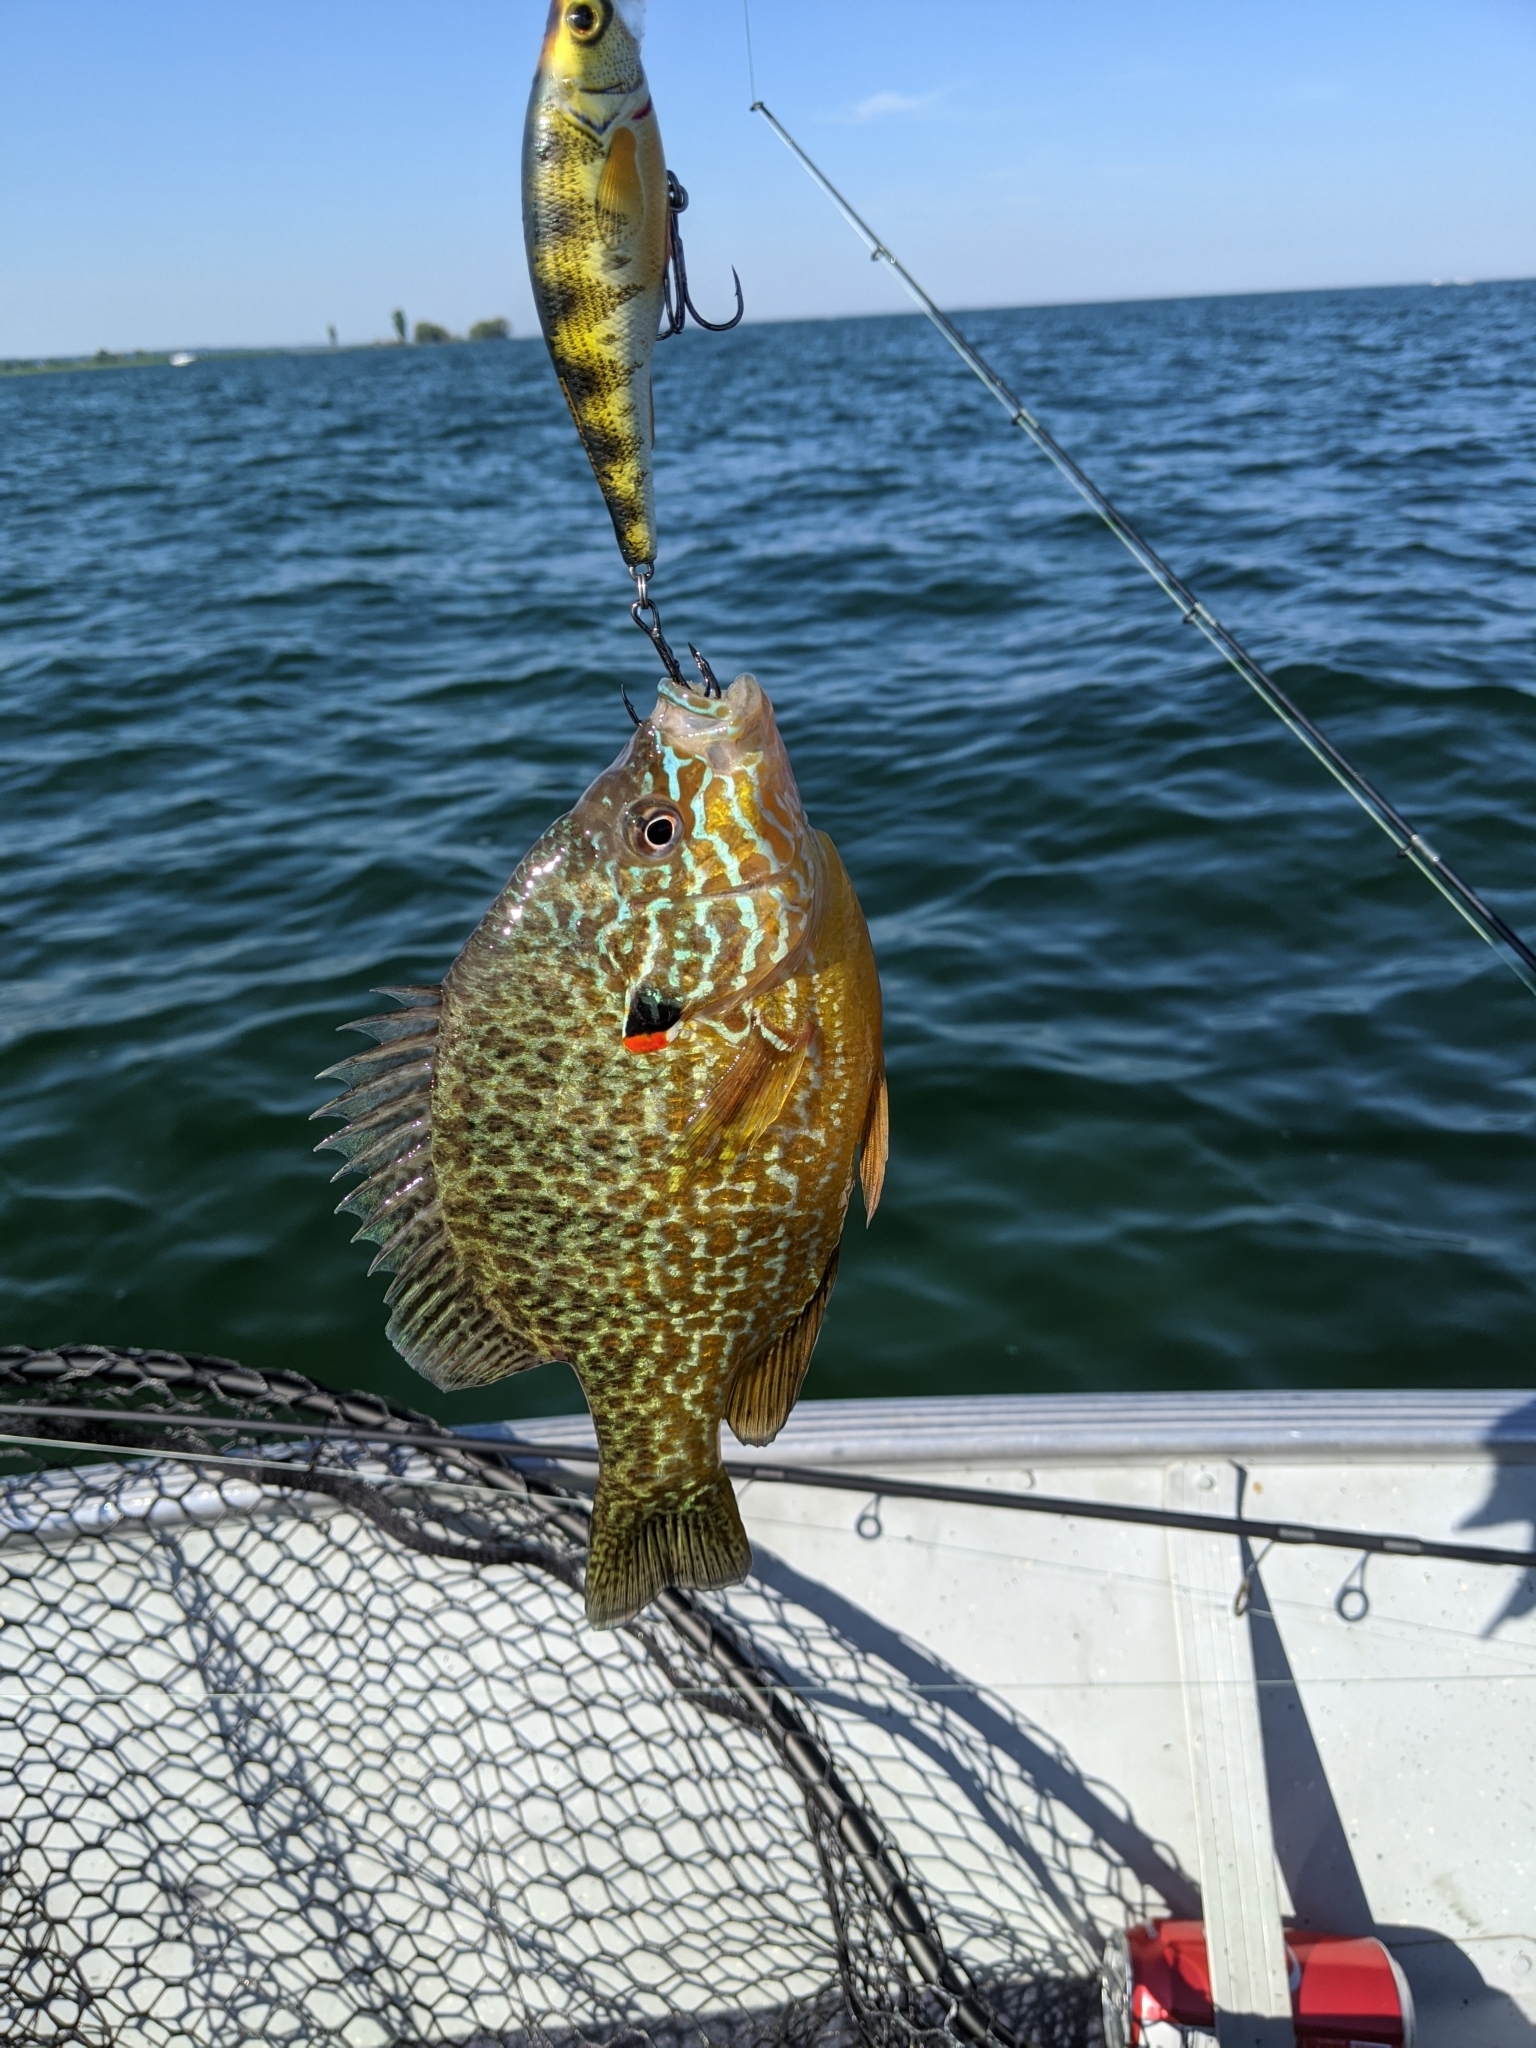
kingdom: Animalia
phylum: Chordata
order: Perciformes
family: Centrarchidae
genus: Lepomis
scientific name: Lepomis gibbosus
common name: Pumpkinseed
